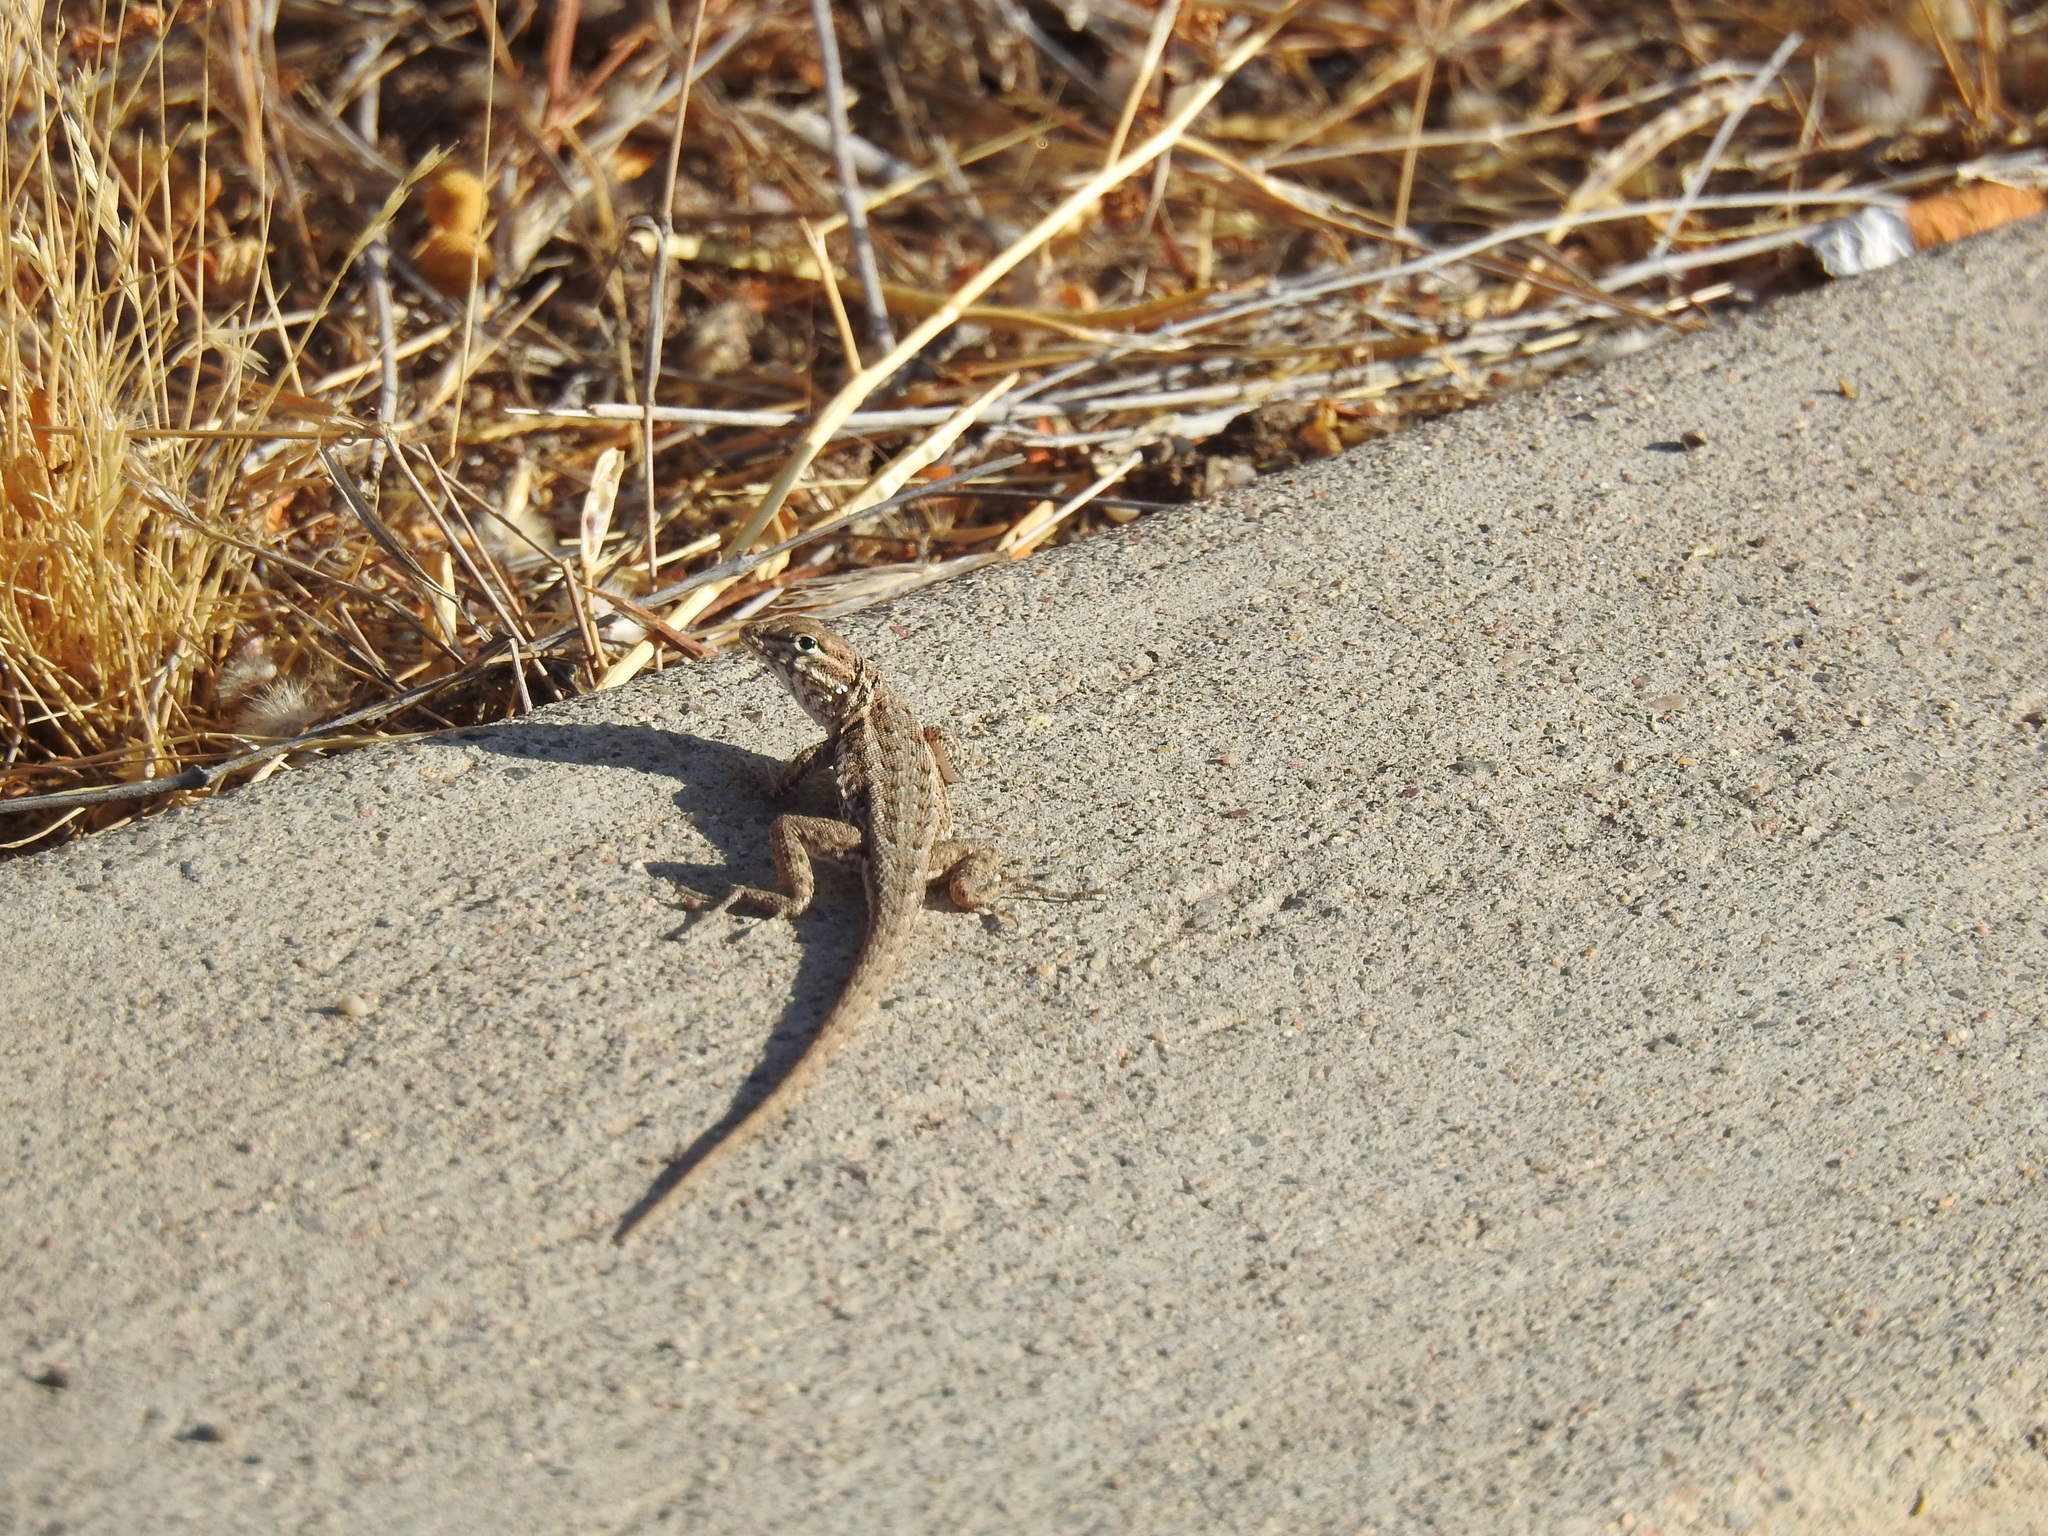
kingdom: Animalia
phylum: Chordata
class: Squamata
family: Phrynosomatidae
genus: Uta
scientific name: Uta stansburiana
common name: Side-blotched lizard
